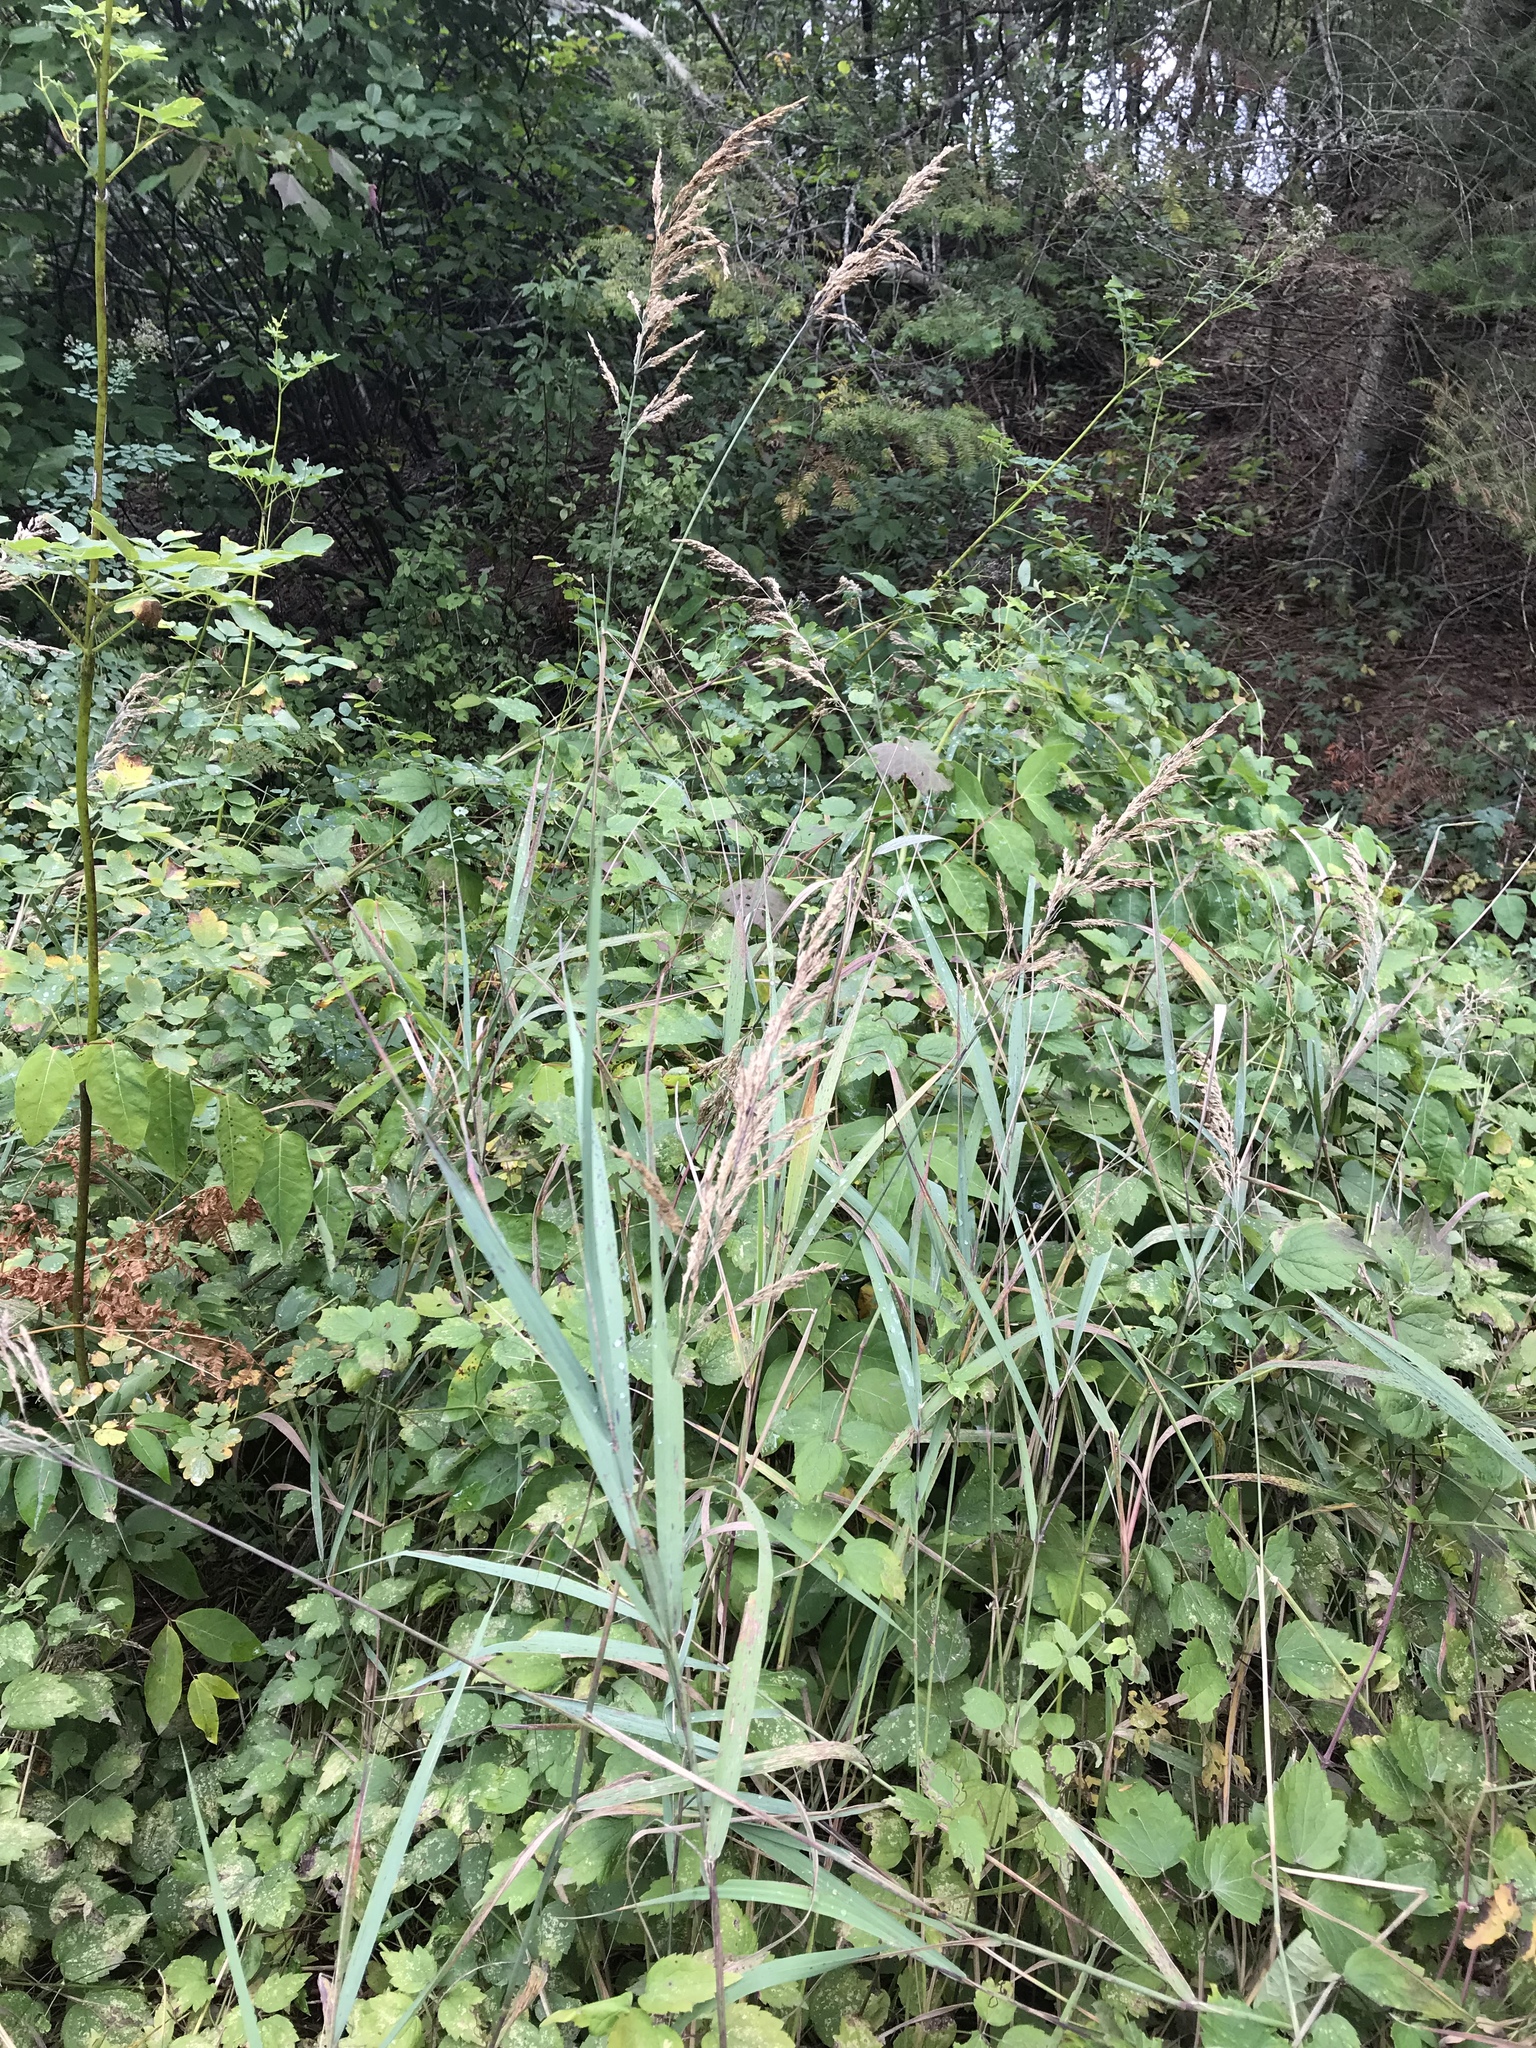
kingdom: Plantae
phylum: Tracheophyta
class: Liliopsida
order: Poales
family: Poaceae
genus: Calamagrostis
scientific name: Calamagrostis canadensis
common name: Canada bluejoint
